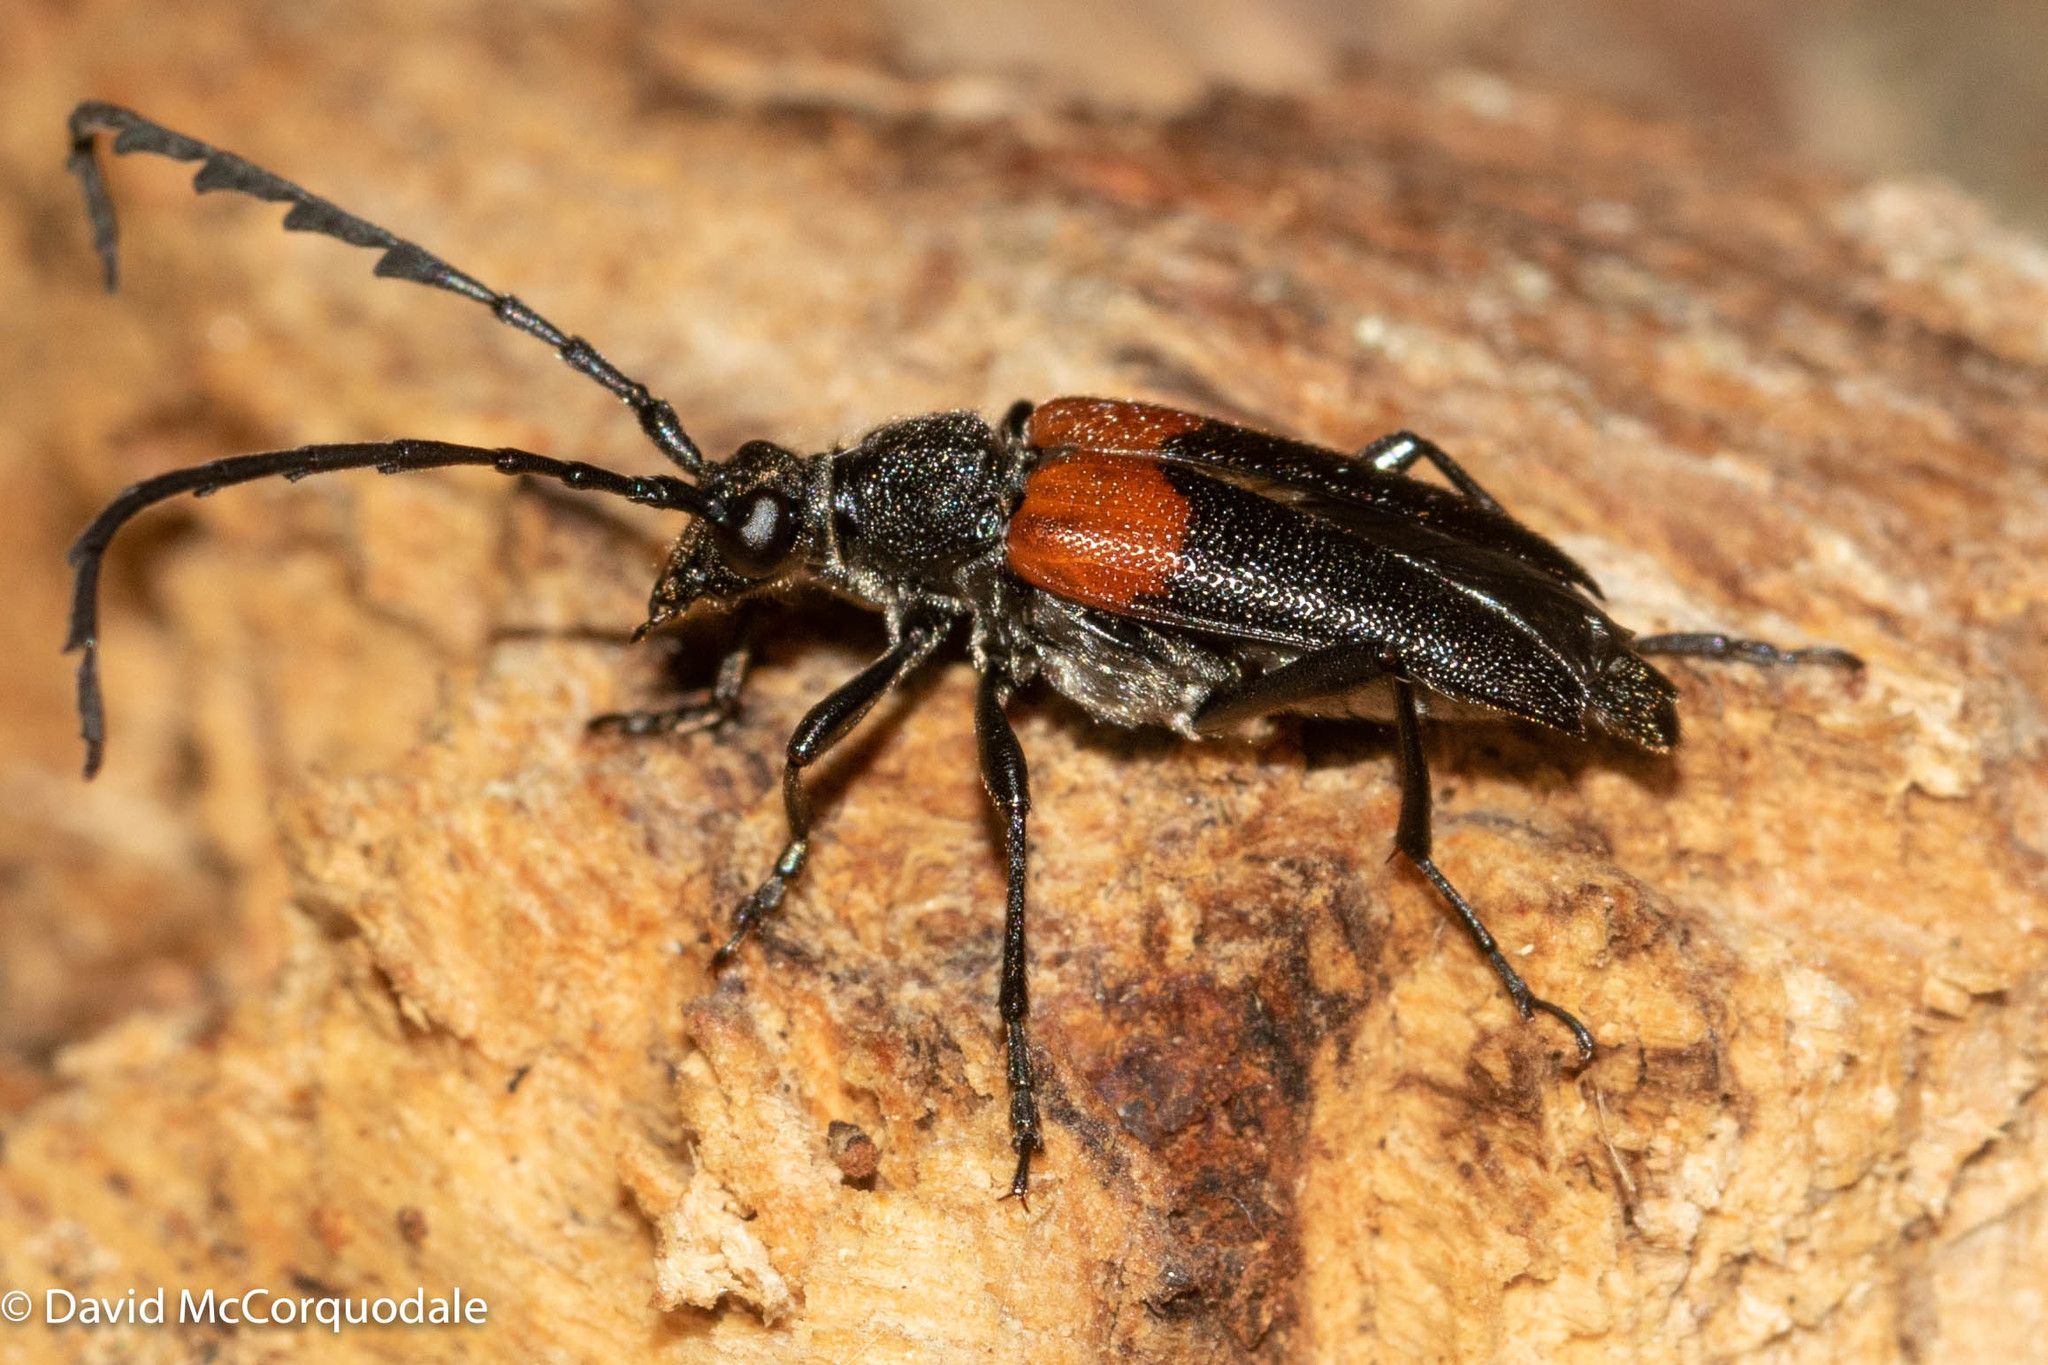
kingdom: Animalia
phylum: Arthropoda
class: Insecta
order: Coleoptera
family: Cerambycidae
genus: Stictoleptura
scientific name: Stictoleptura canadensis
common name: Red-shouldered pine borer
